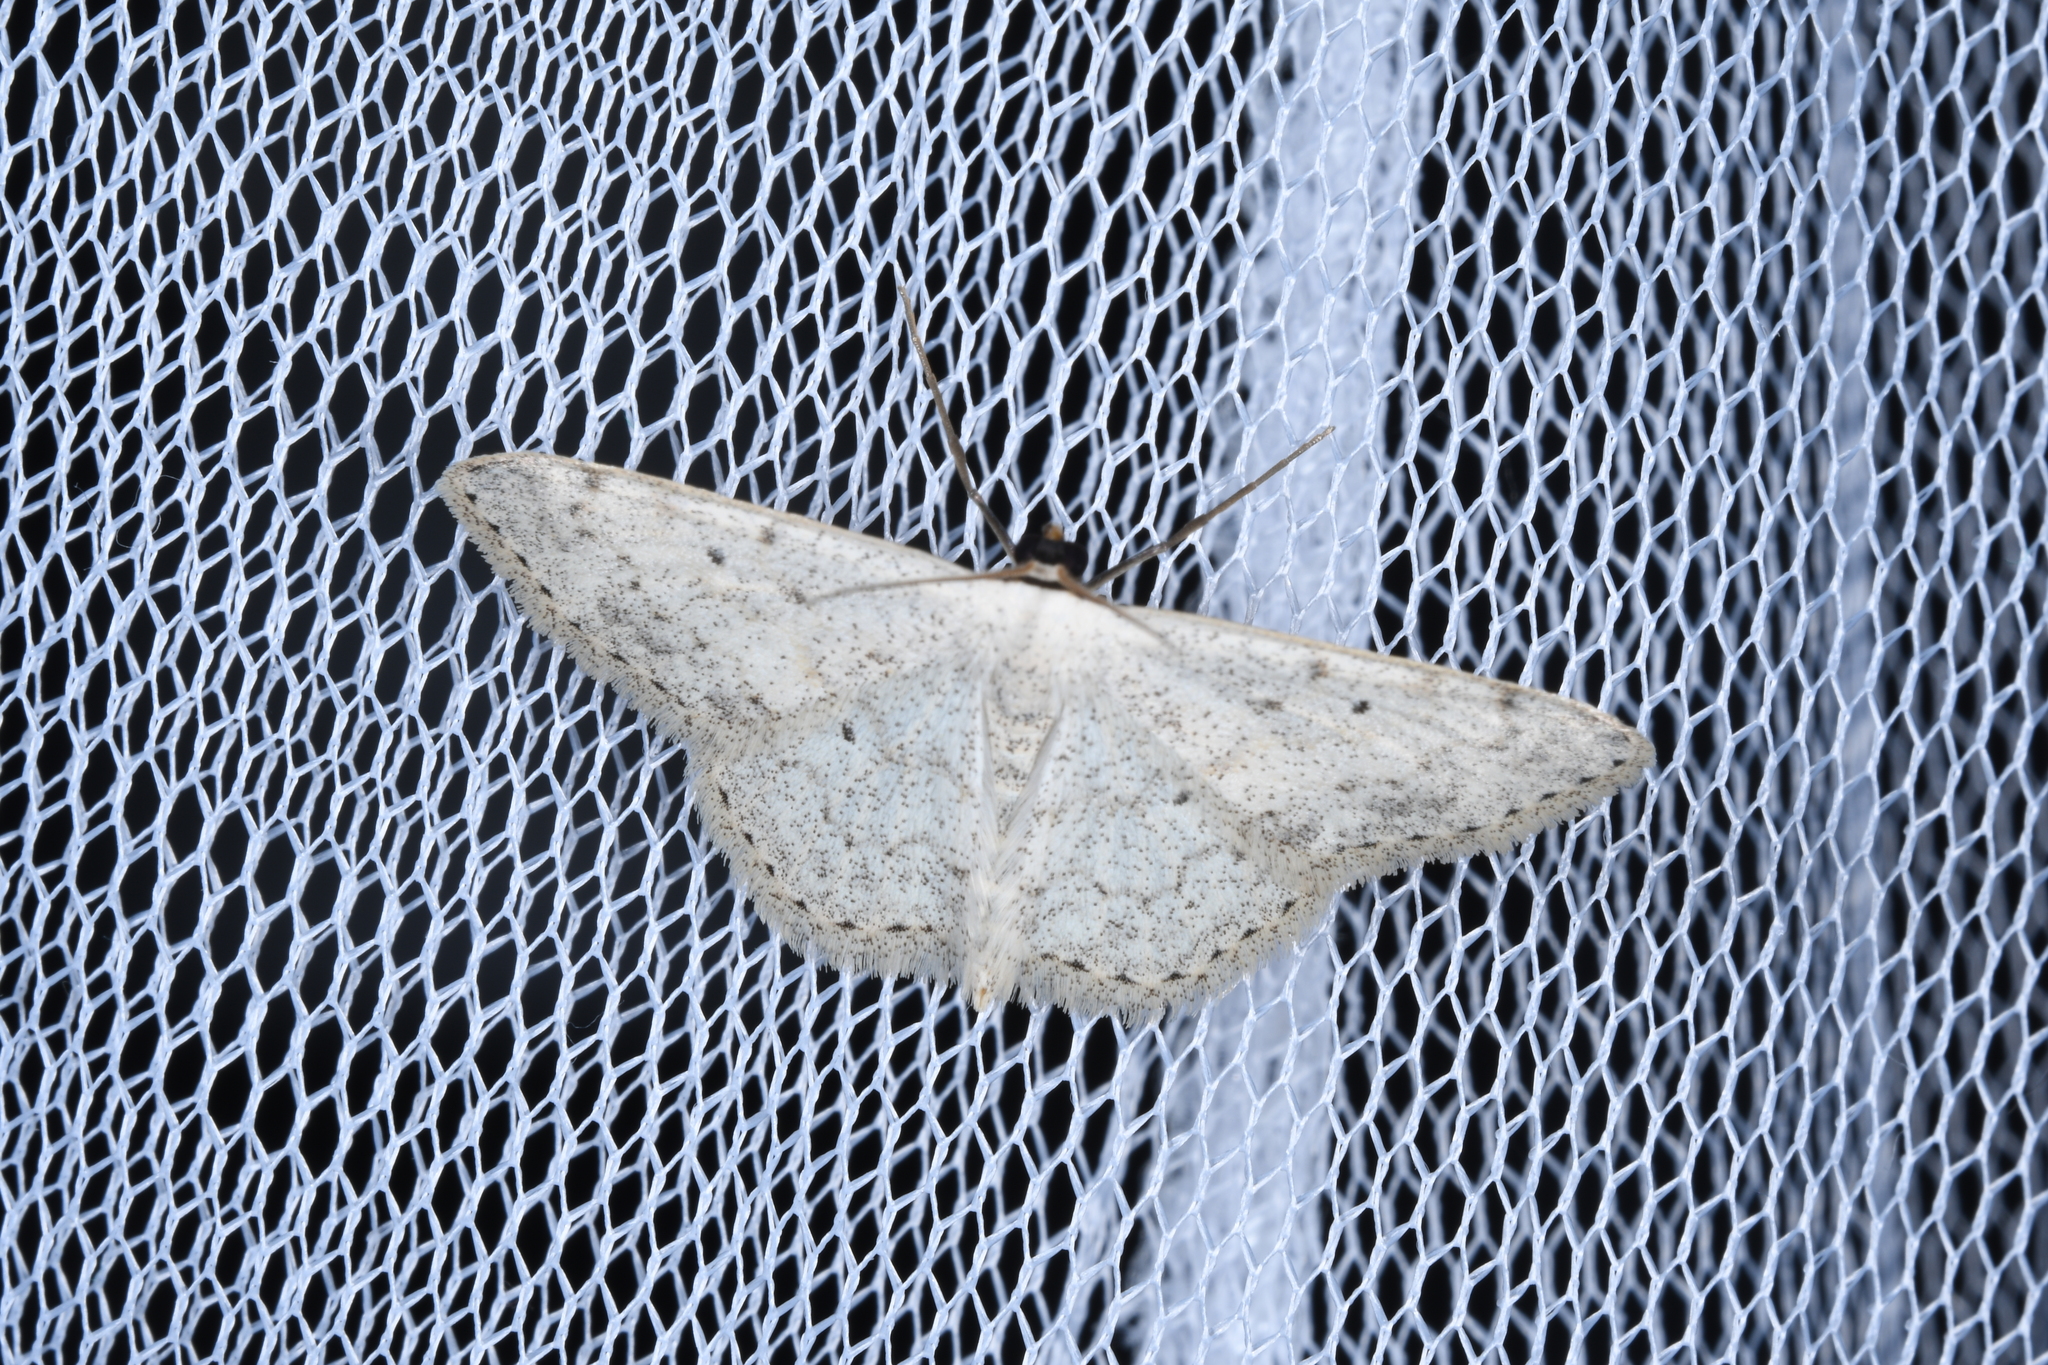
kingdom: Animalia
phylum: Arthropoda
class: Insecta
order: Lepidoptera
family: Geometridae
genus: Scopula
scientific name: Scopula marginepunctata
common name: Mullein wave
